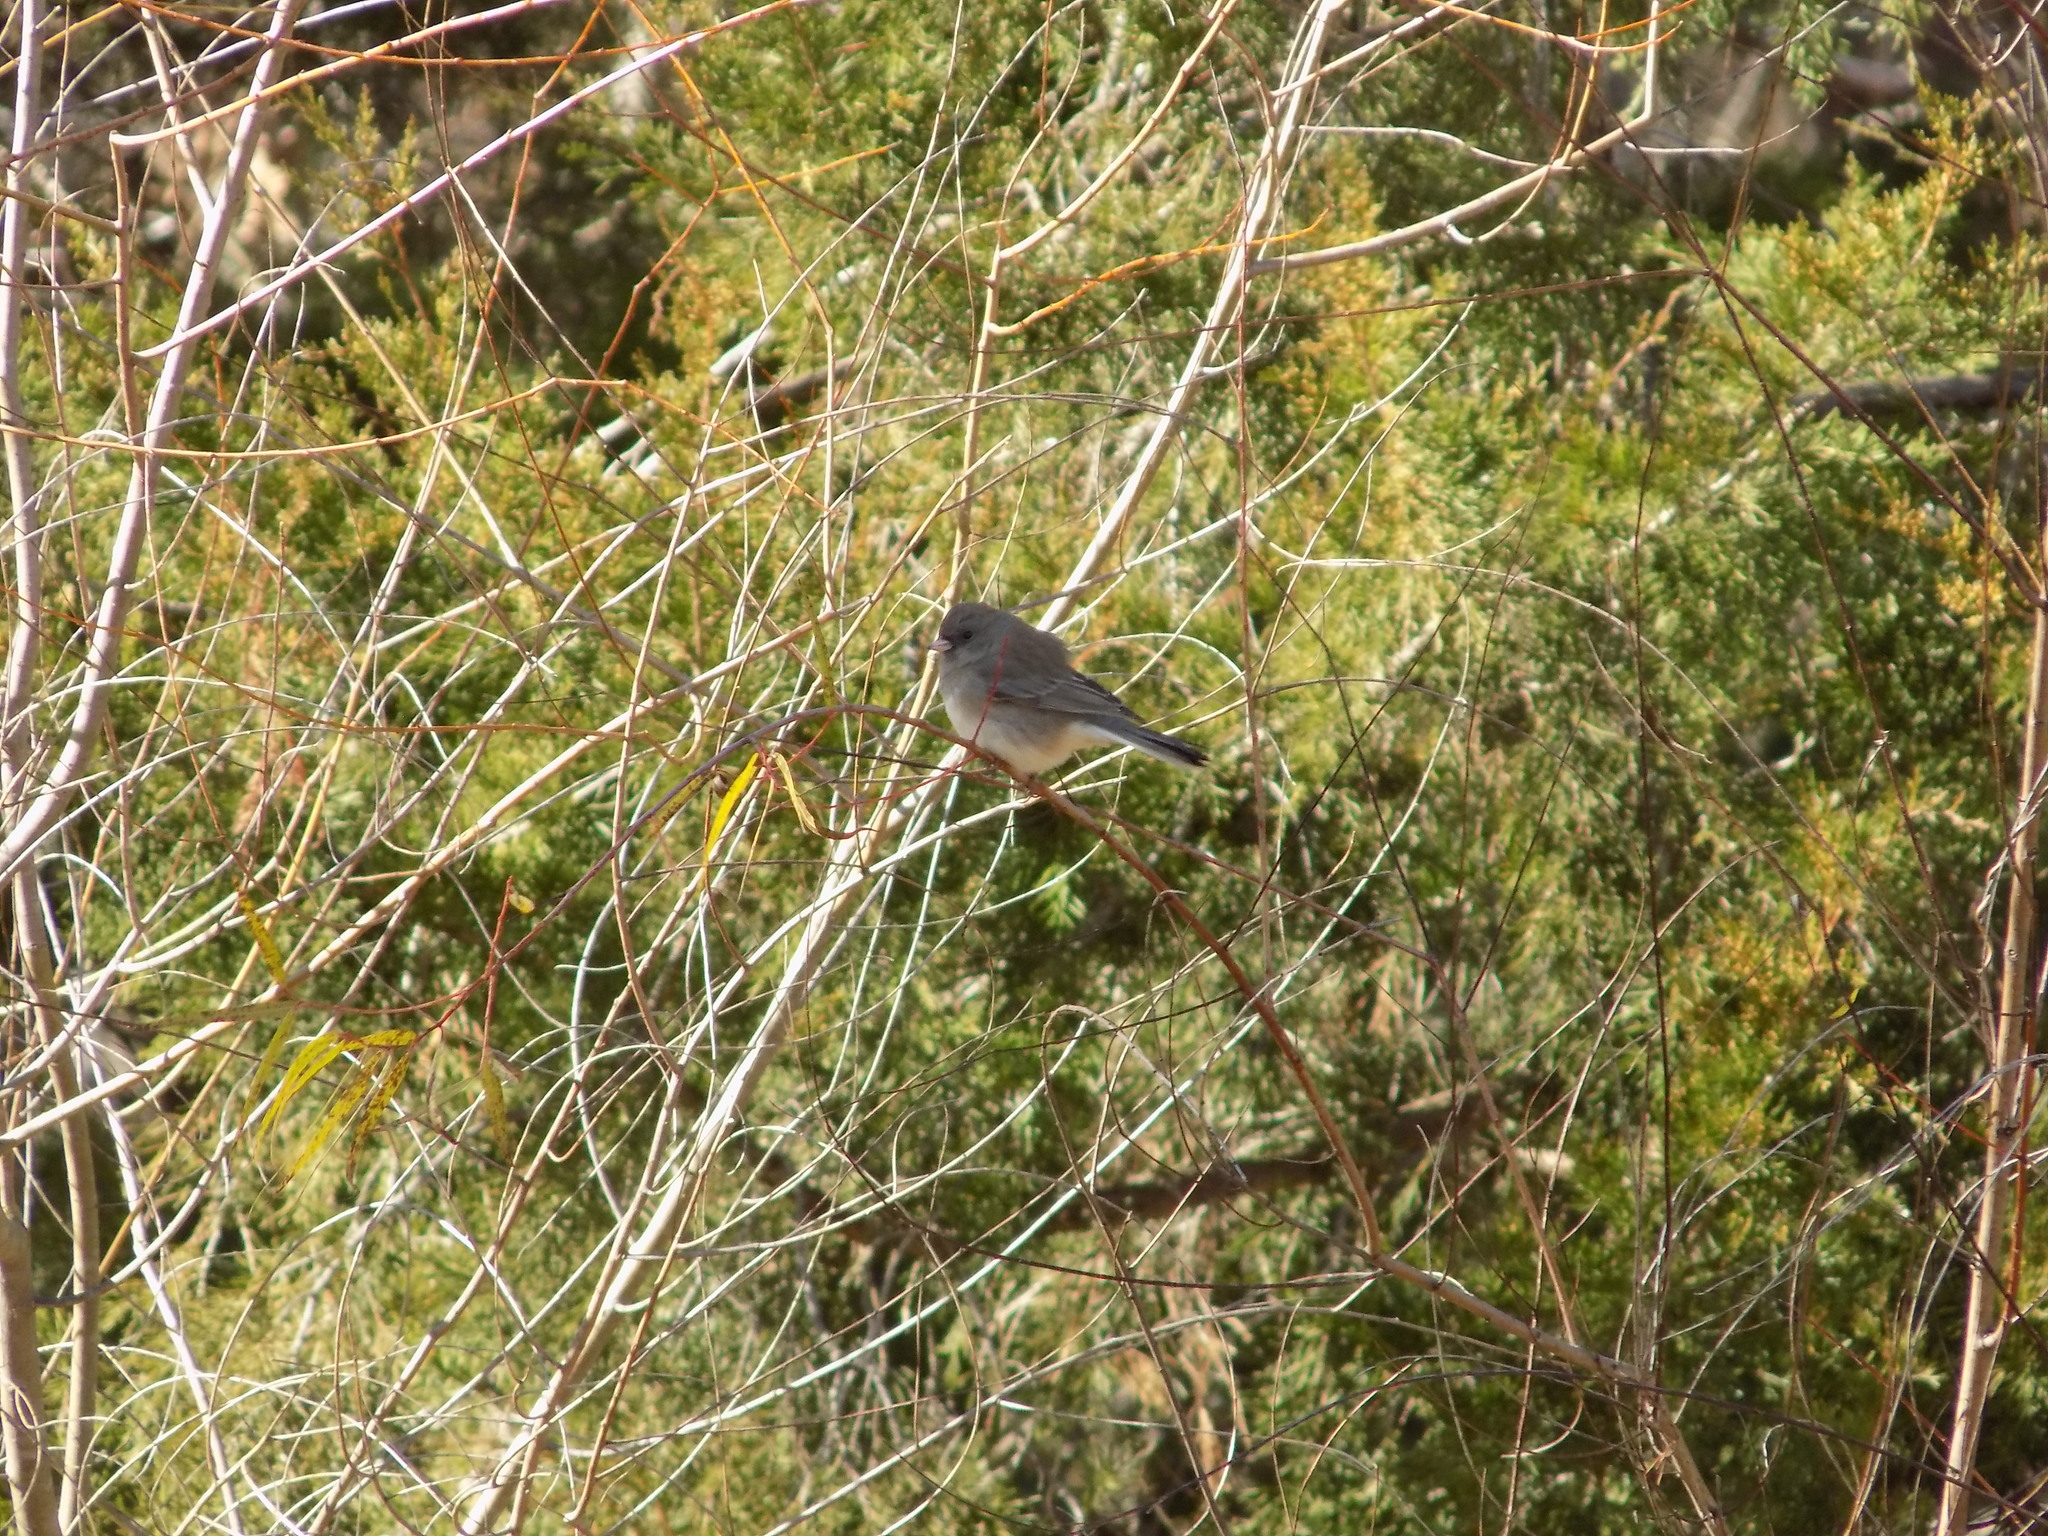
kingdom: Animalia
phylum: Chordata
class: Aves
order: Passeriformes
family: Passerellidae
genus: Junco
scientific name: Junco hyemalis
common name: Dark-eyed junco
